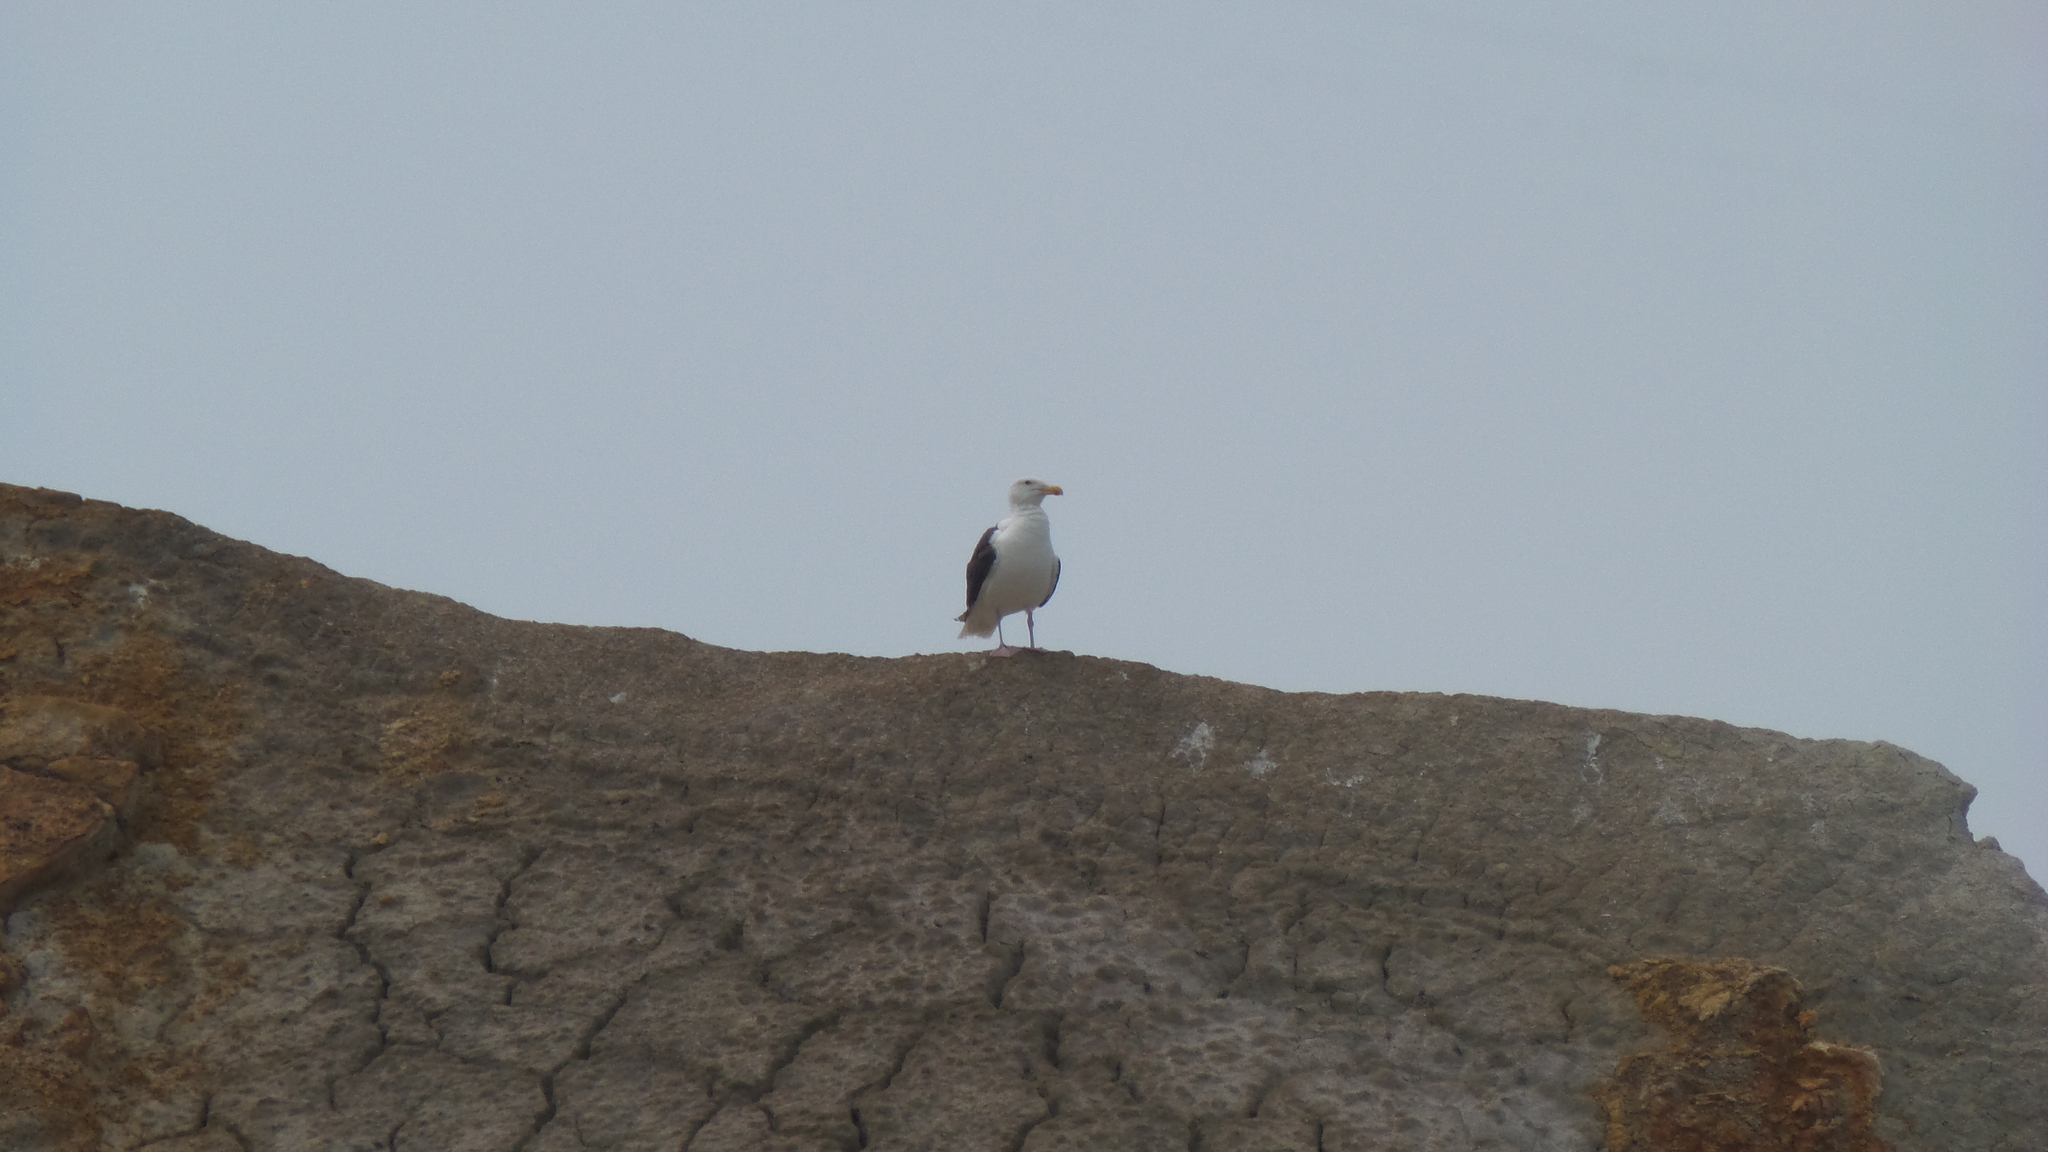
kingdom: Animalia
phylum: Chordata
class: Aves
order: Charadriiformes
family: Laridae
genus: Larus
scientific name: Larus marinus
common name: Great black-backed gull
